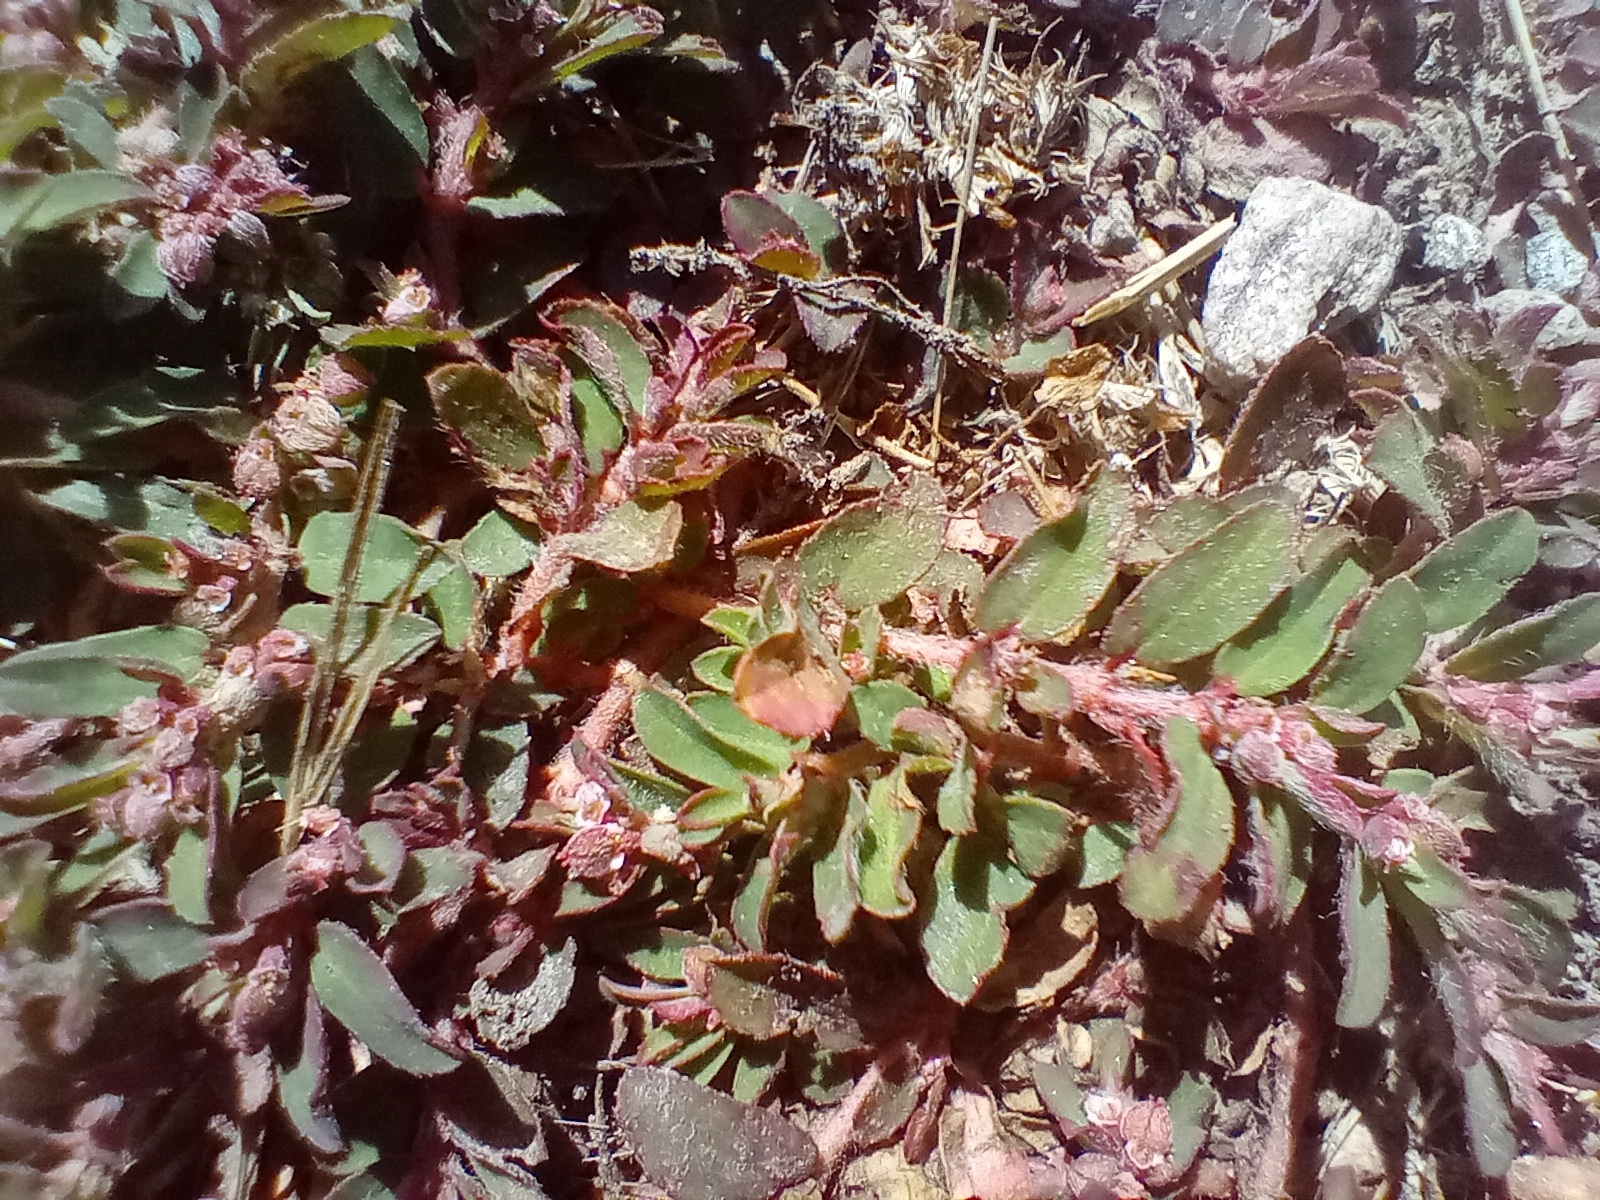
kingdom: Plantae
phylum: Tracheophyta
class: Magnoliopsida
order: Malpighiales
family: Euphorbiaceae
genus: Euphorbia
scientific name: Euphorbia maculata
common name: Spotted spurge
